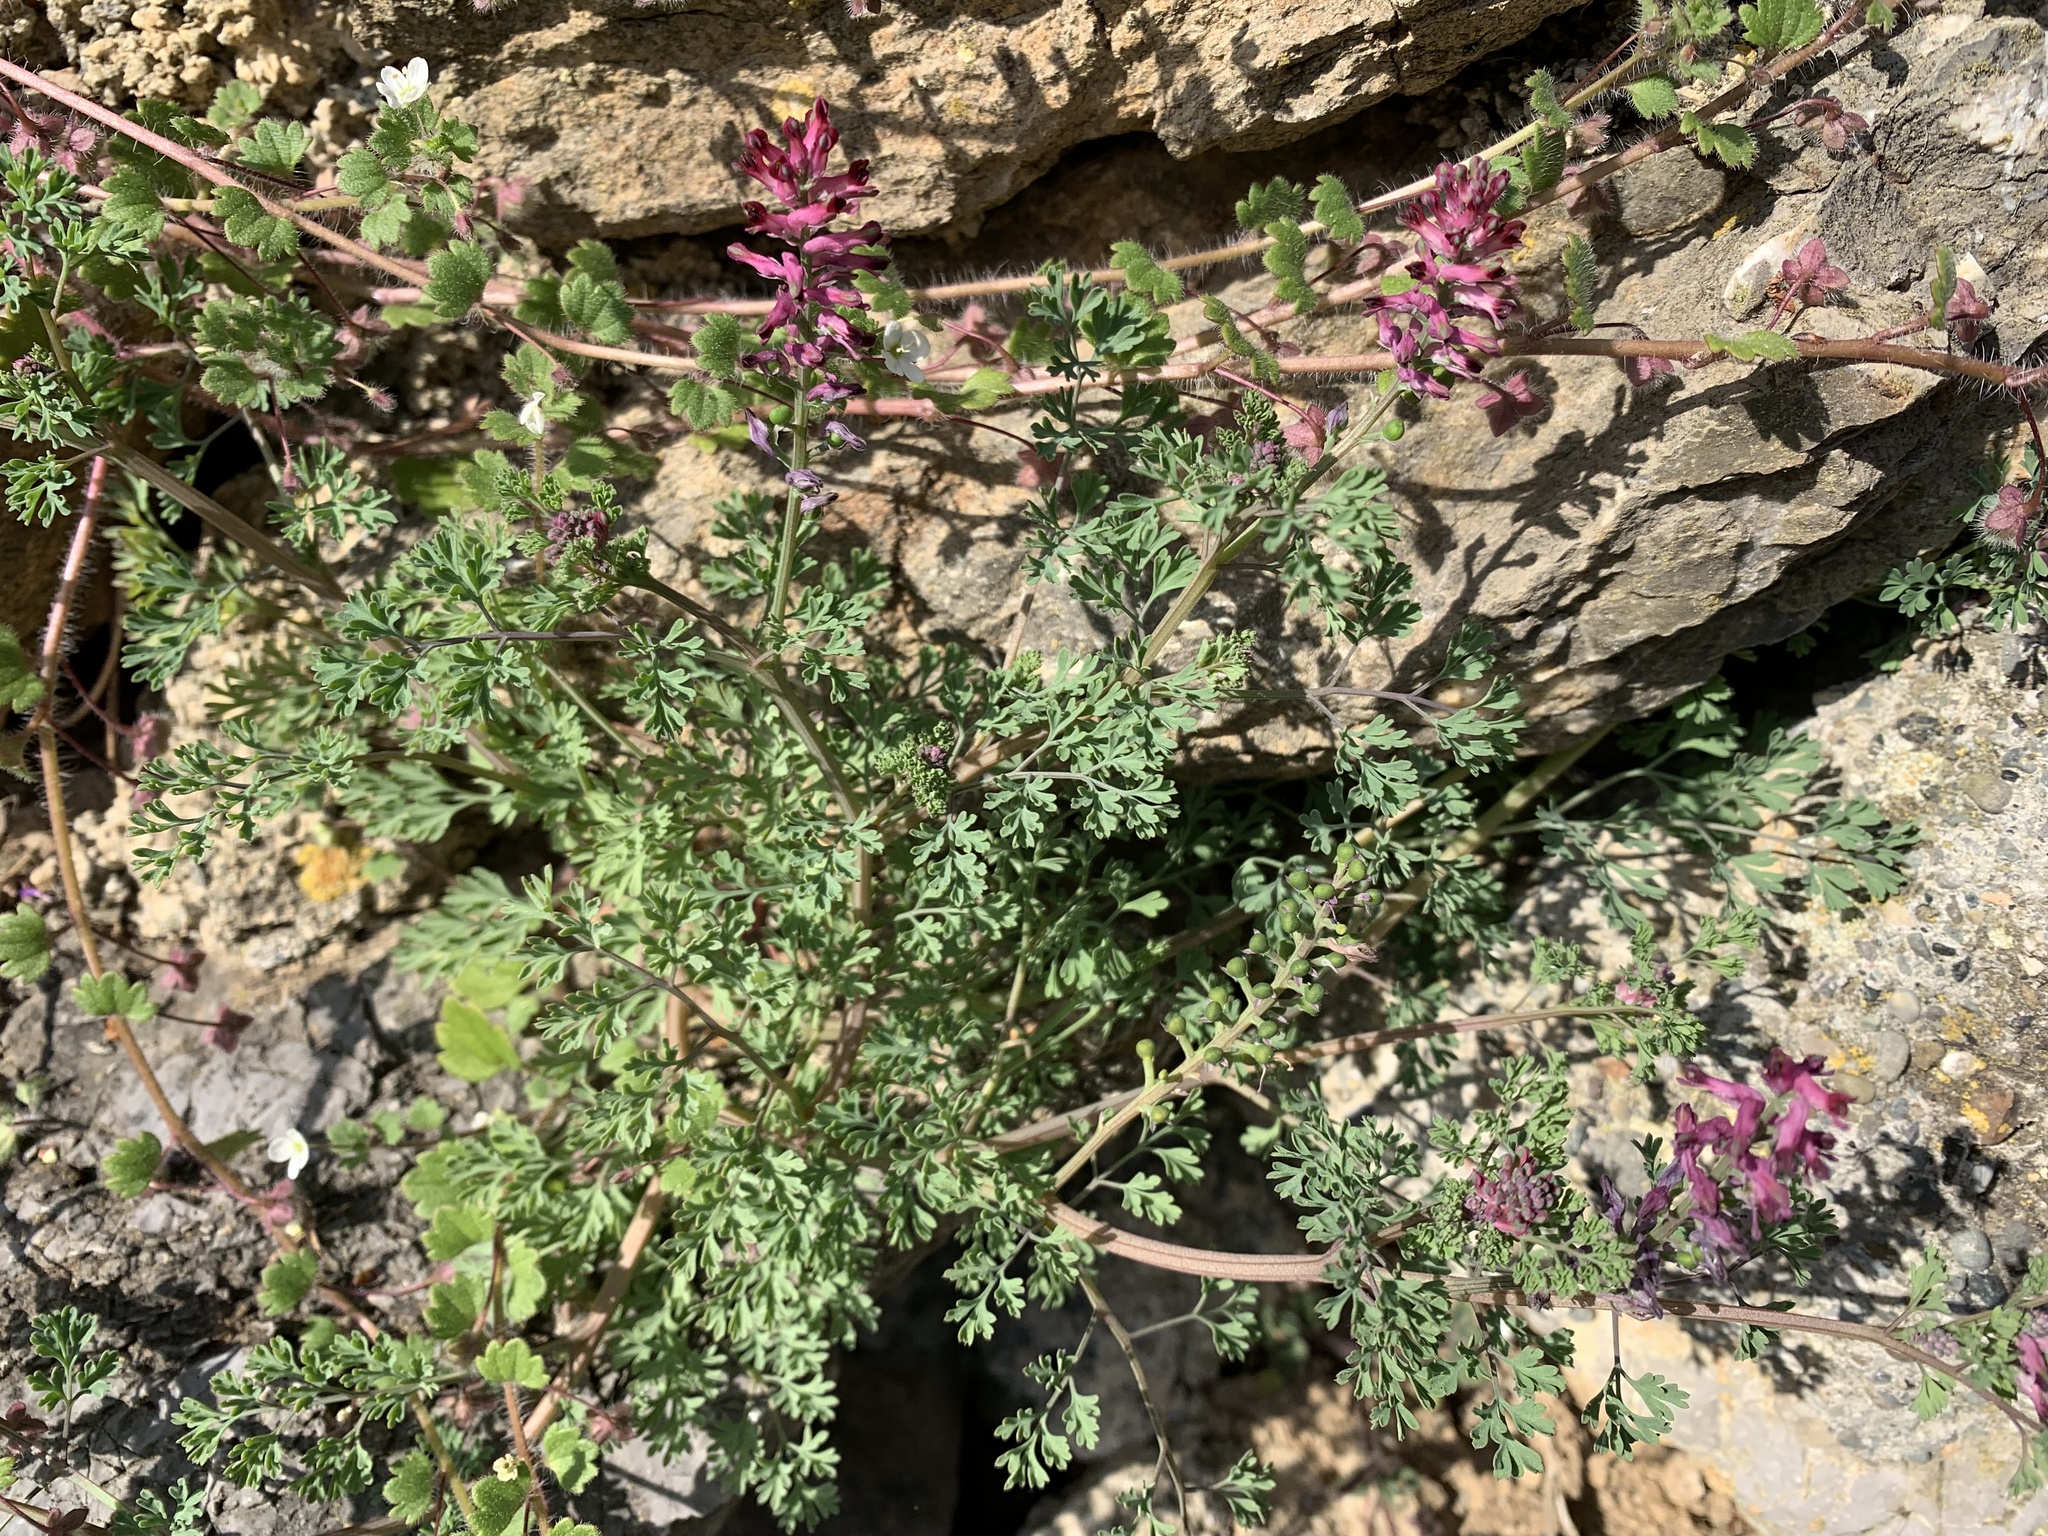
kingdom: Plantae
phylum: Tracheophyta
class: Magnoliopsida
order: Ranunculales
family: Papaveraceae
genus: Fumaria
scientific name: Fumaria officinalis
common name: Common fumitory
